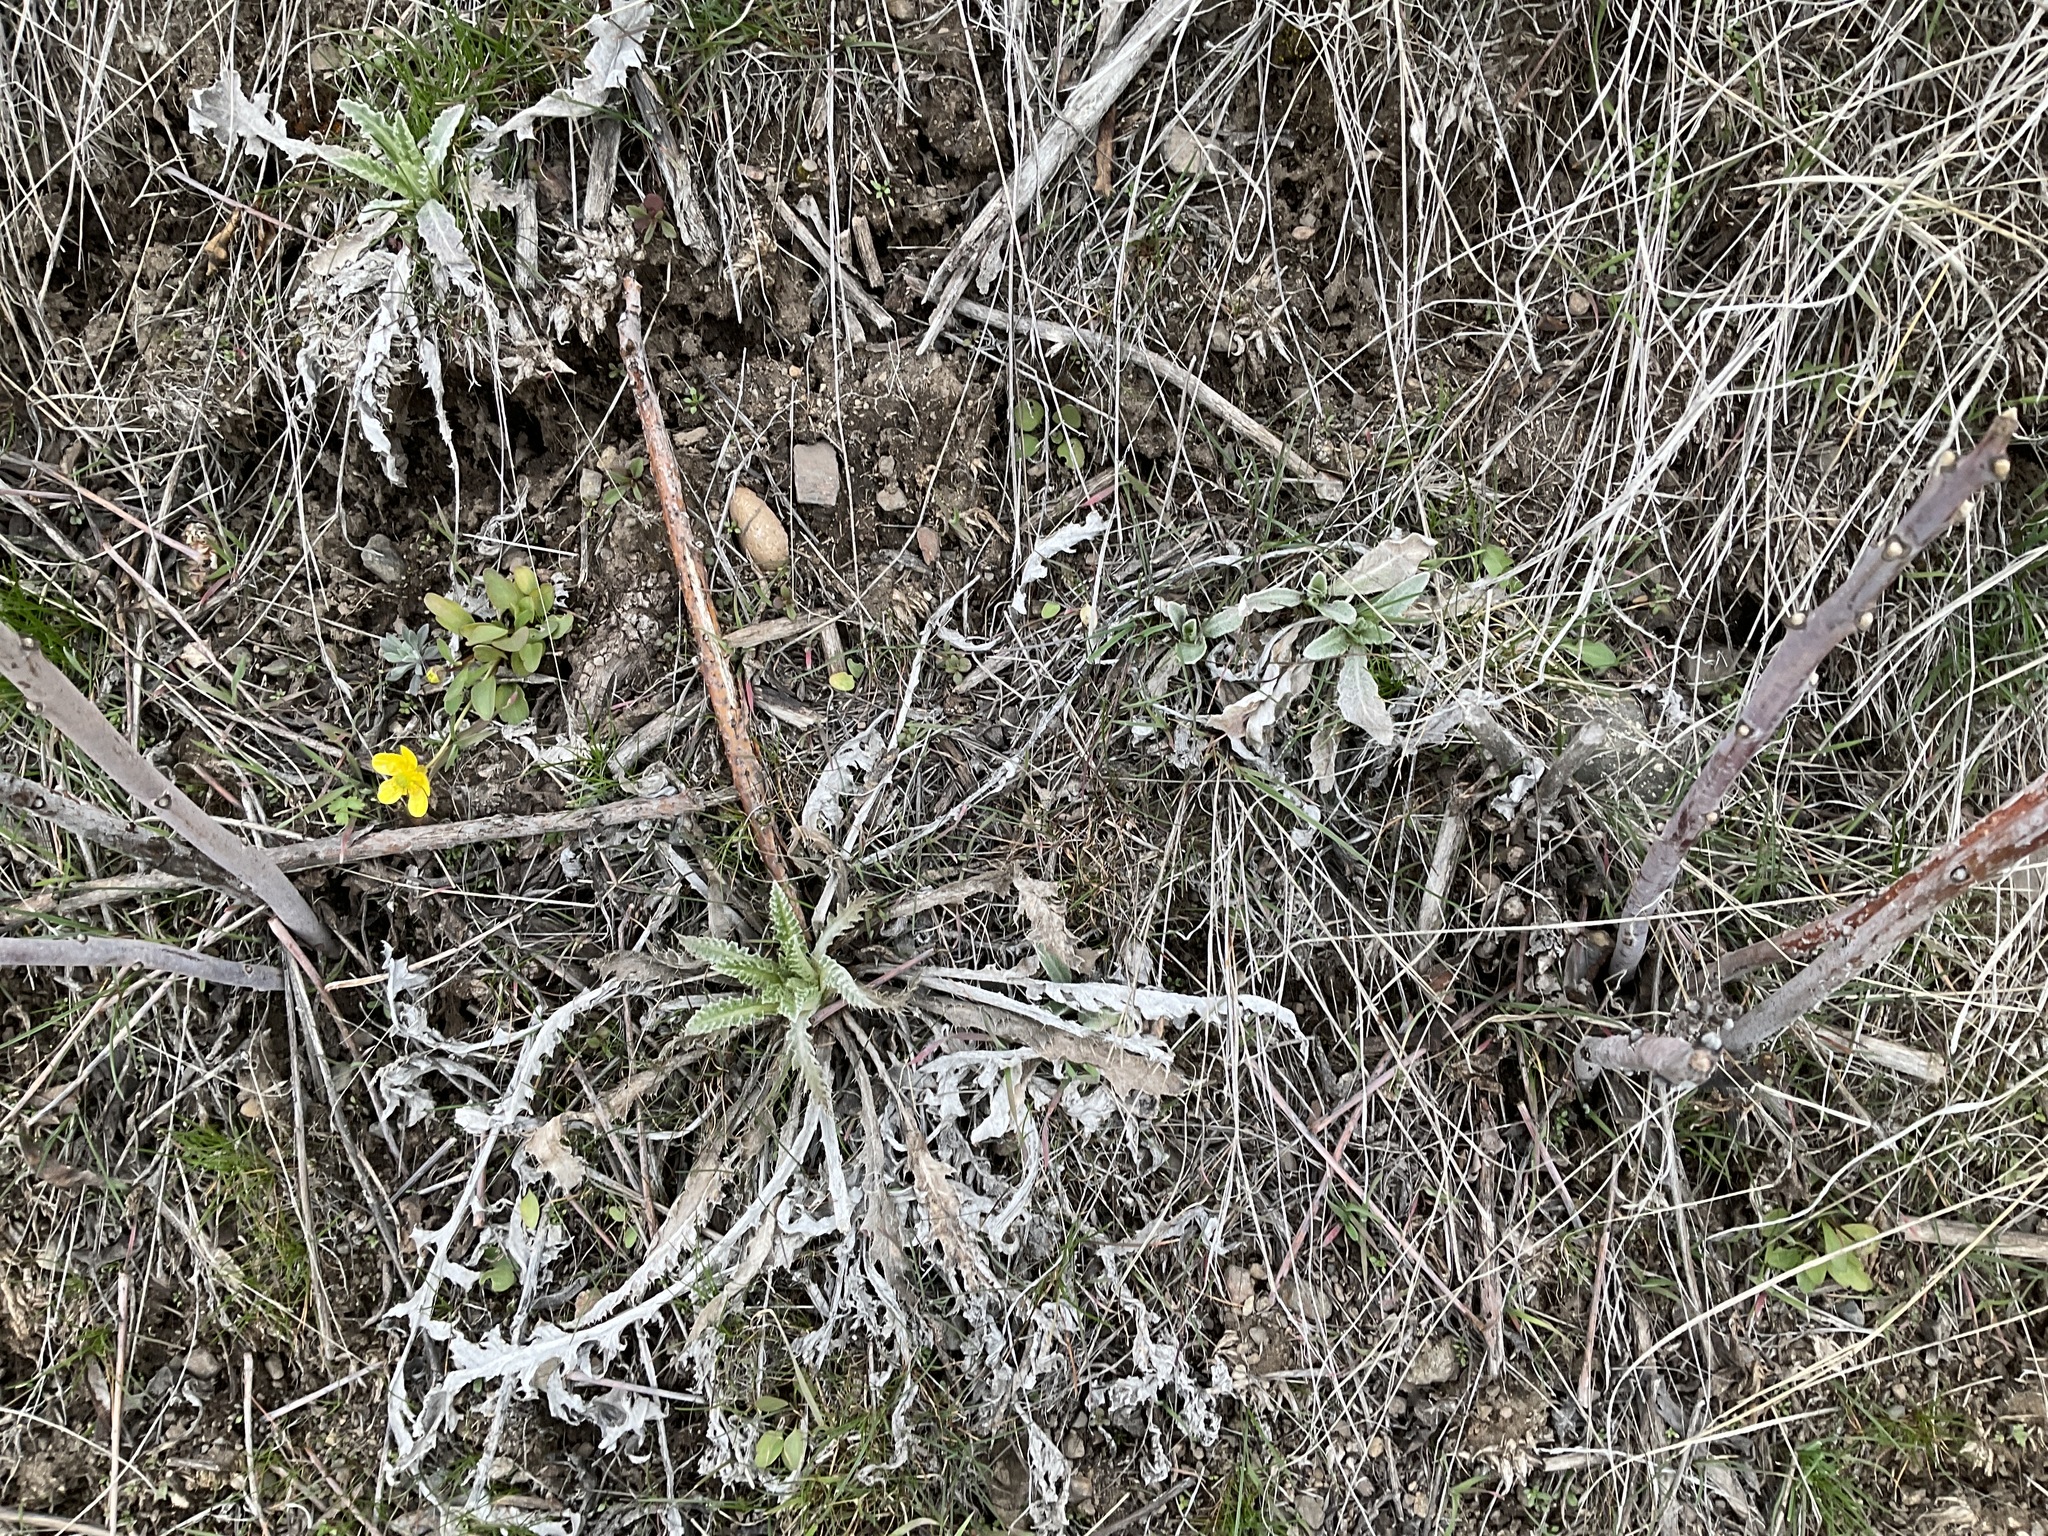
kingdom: Plantae
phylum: Tracheophyta
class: Magnoliopsida
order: Asterales
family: Asteraceae
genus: Cirsium
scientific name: Cirsium undulatum
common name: Pasture thistle
